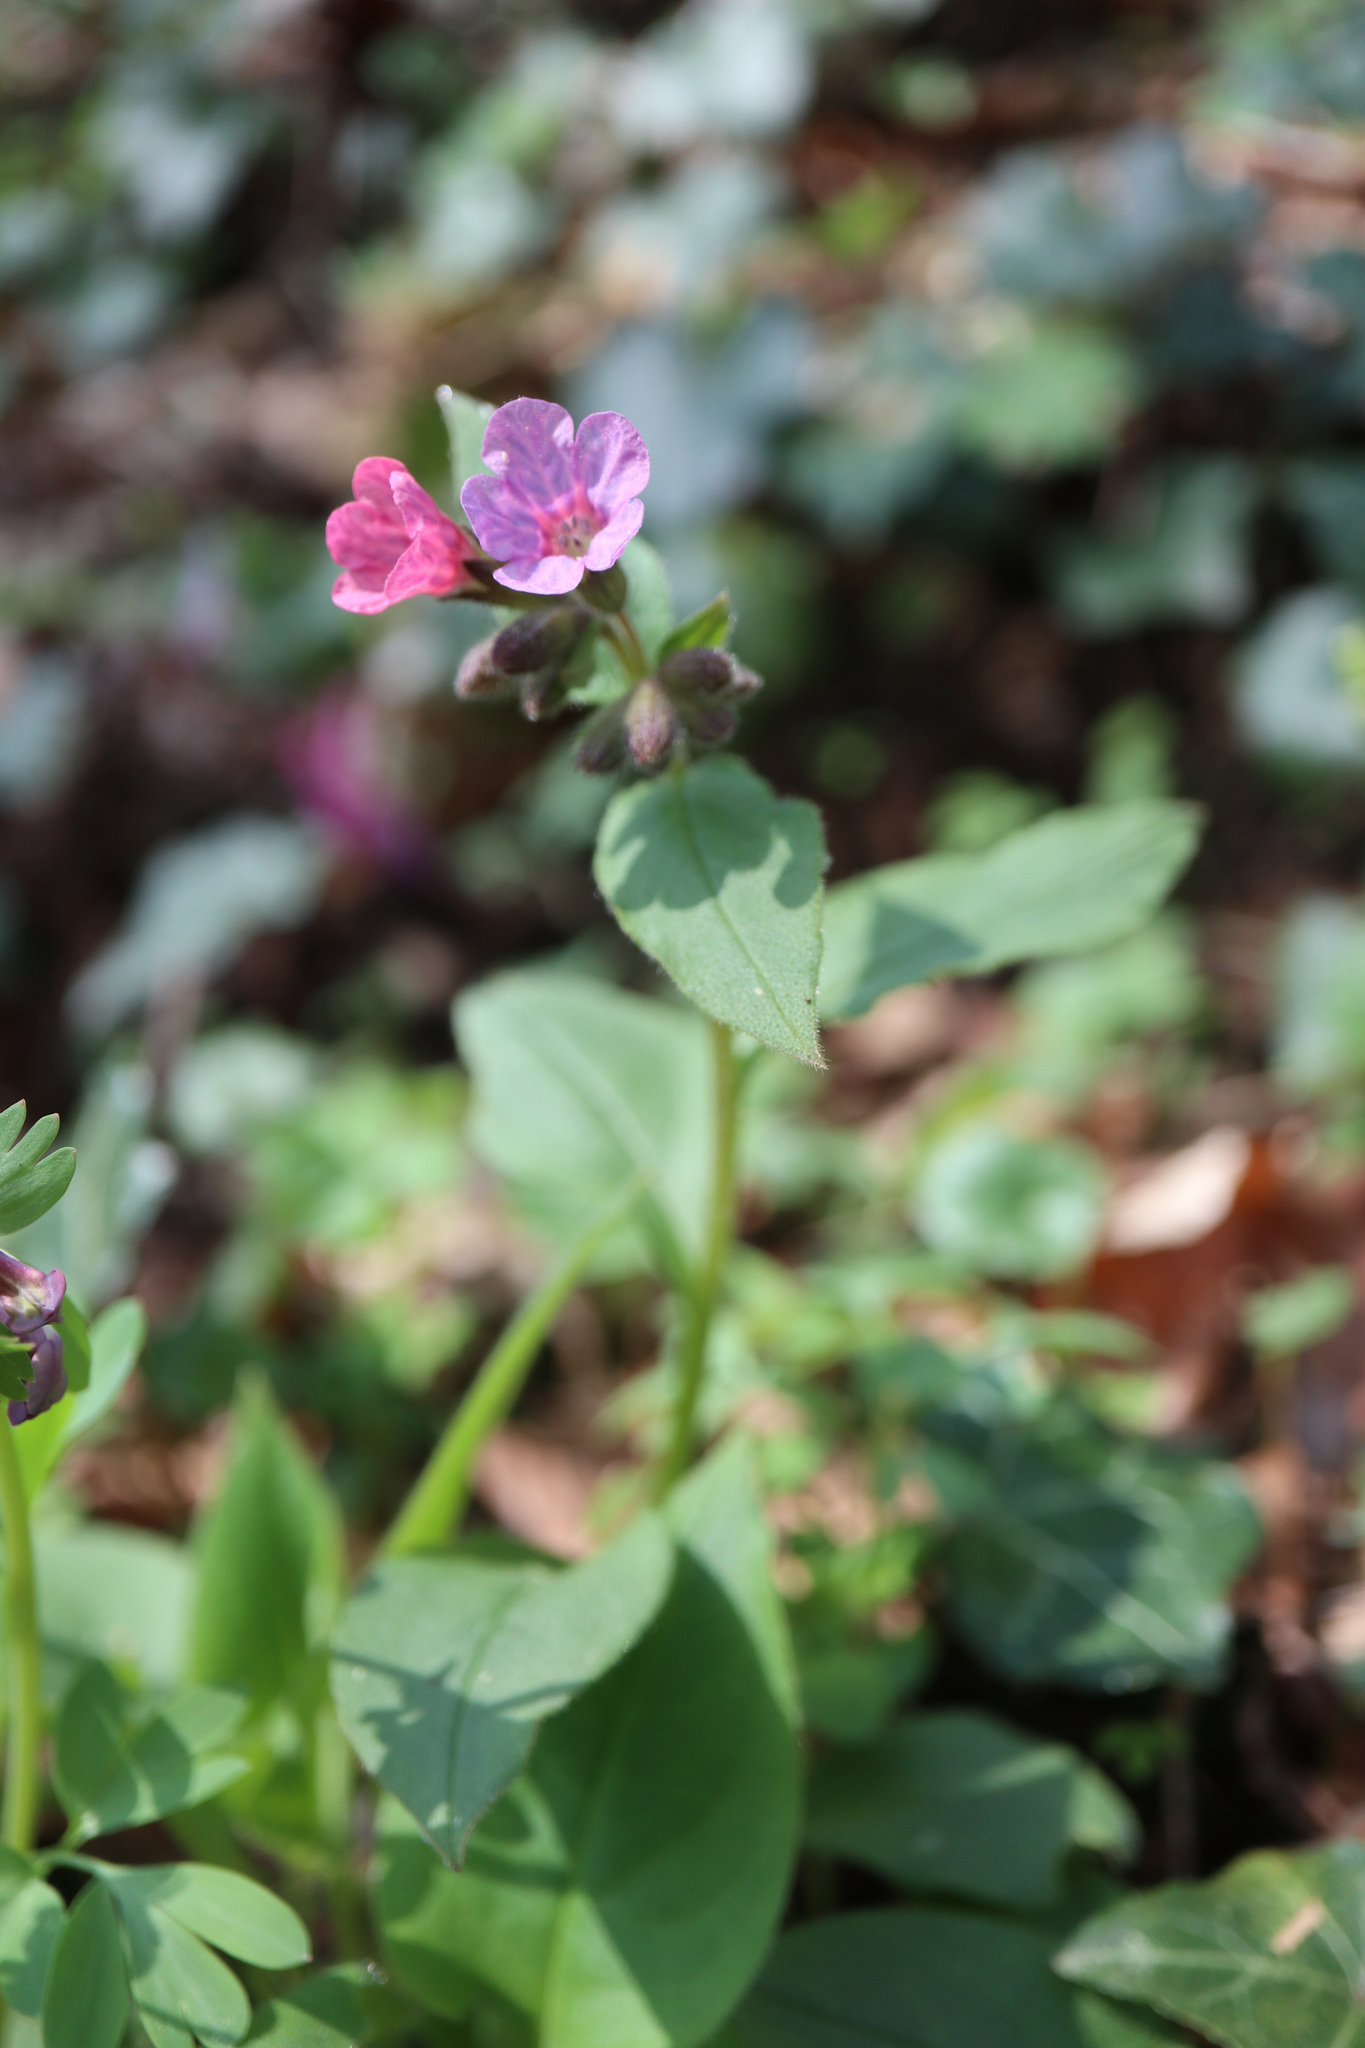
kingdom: Plantae
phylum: Tracheophyta
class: Magnoliopsida
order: Boraginales
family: Boraginaceae
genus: Pulmonaria
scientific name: Pulmonaria obscura
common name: Suffolk lungwort
